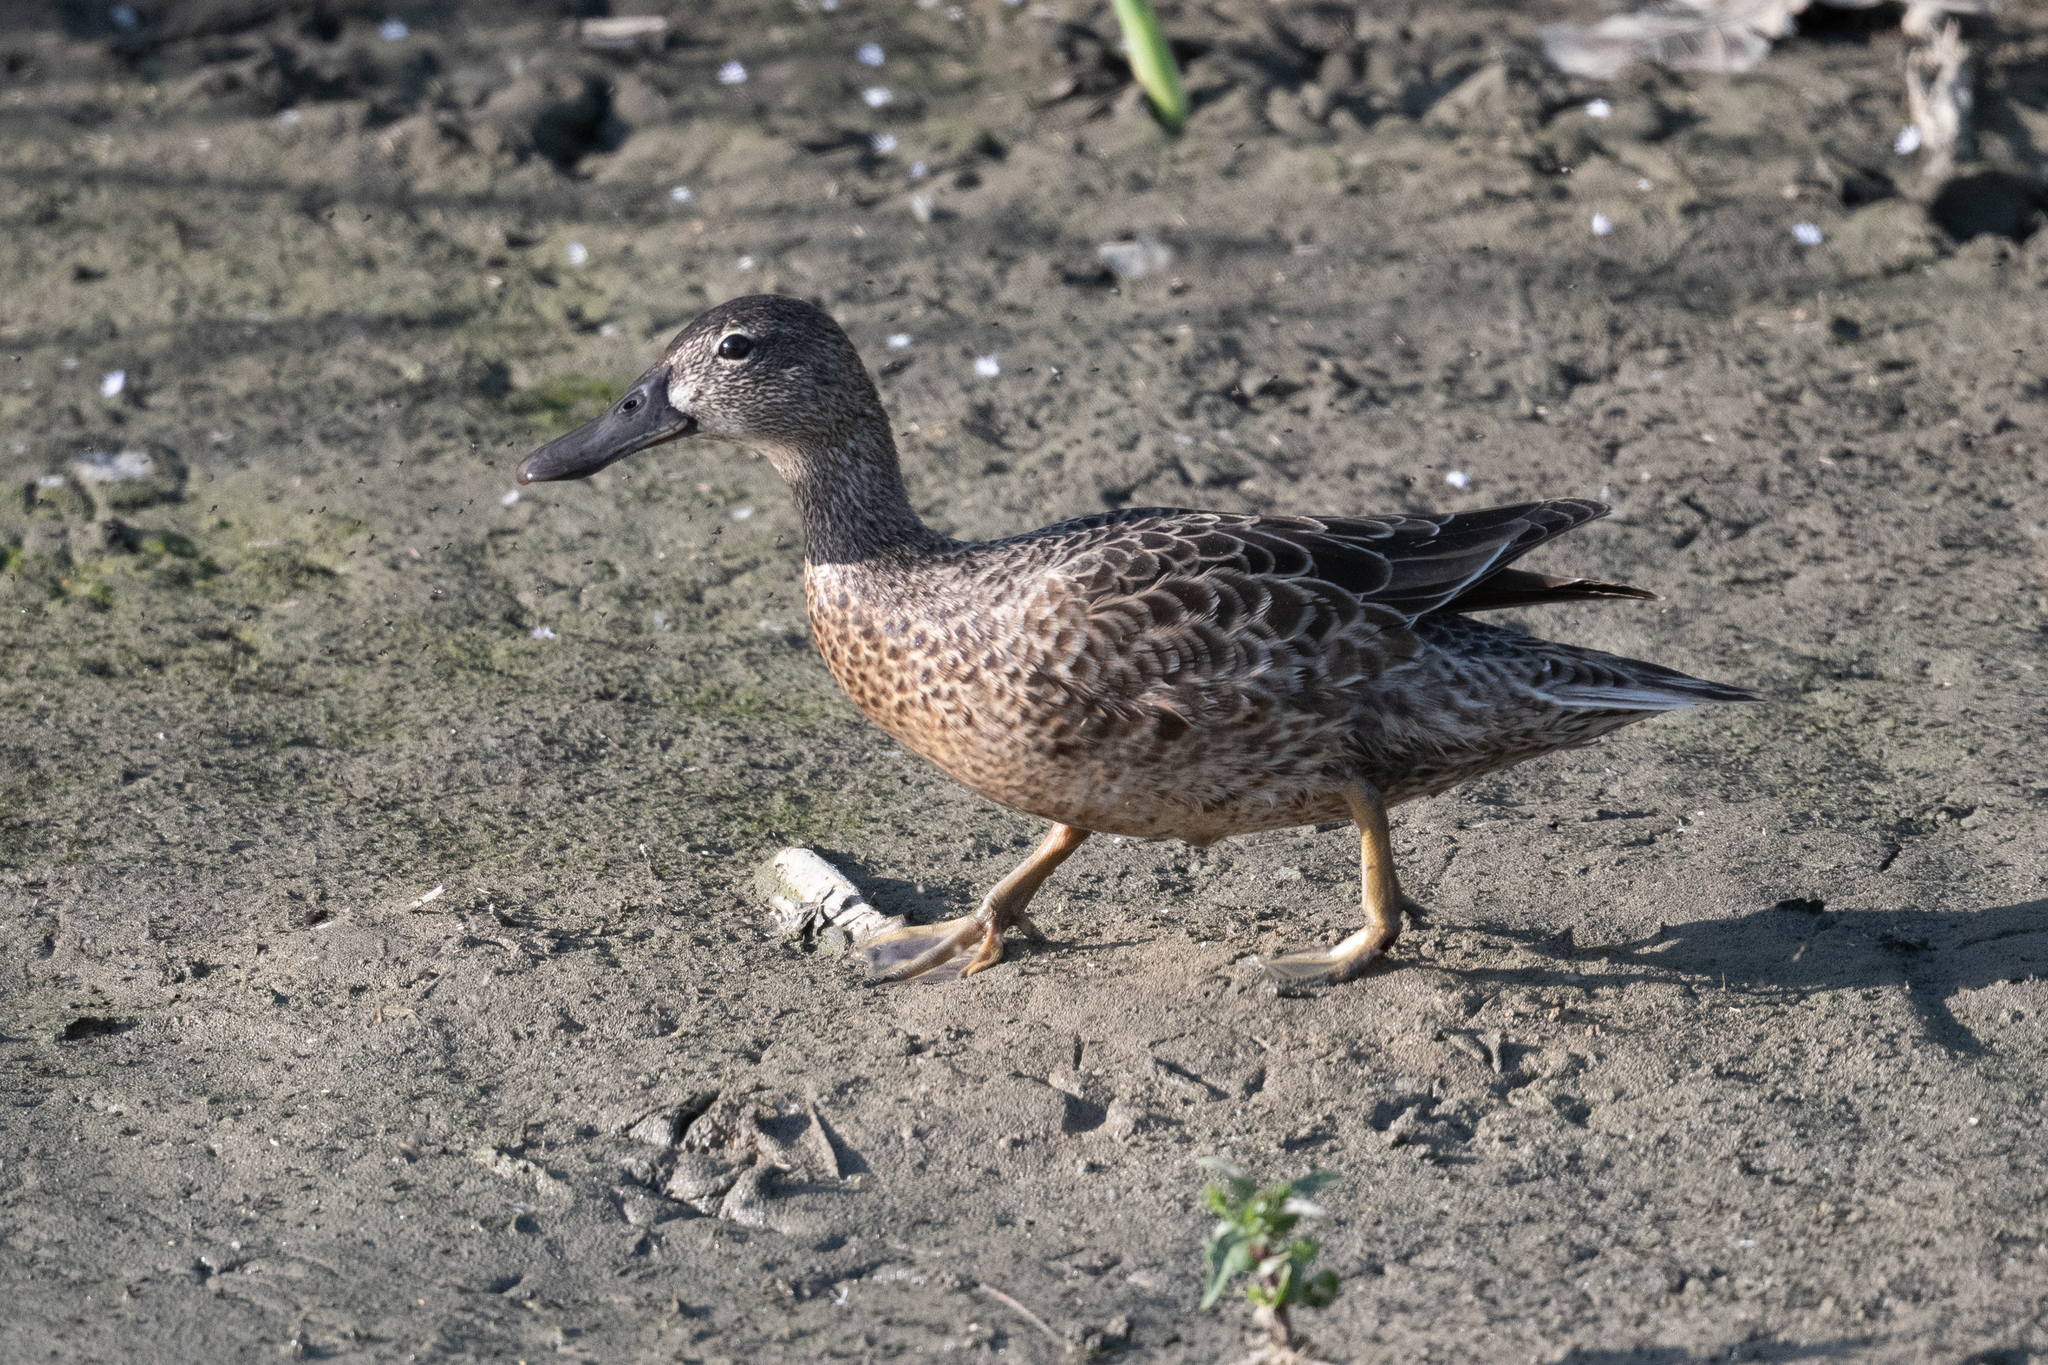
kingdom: Animalia
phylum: Chordata
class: Aves
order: Anseriformes
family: Anatidae
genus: Spatula
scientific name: Spatula cyanoptera
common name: Cinnamon teal
